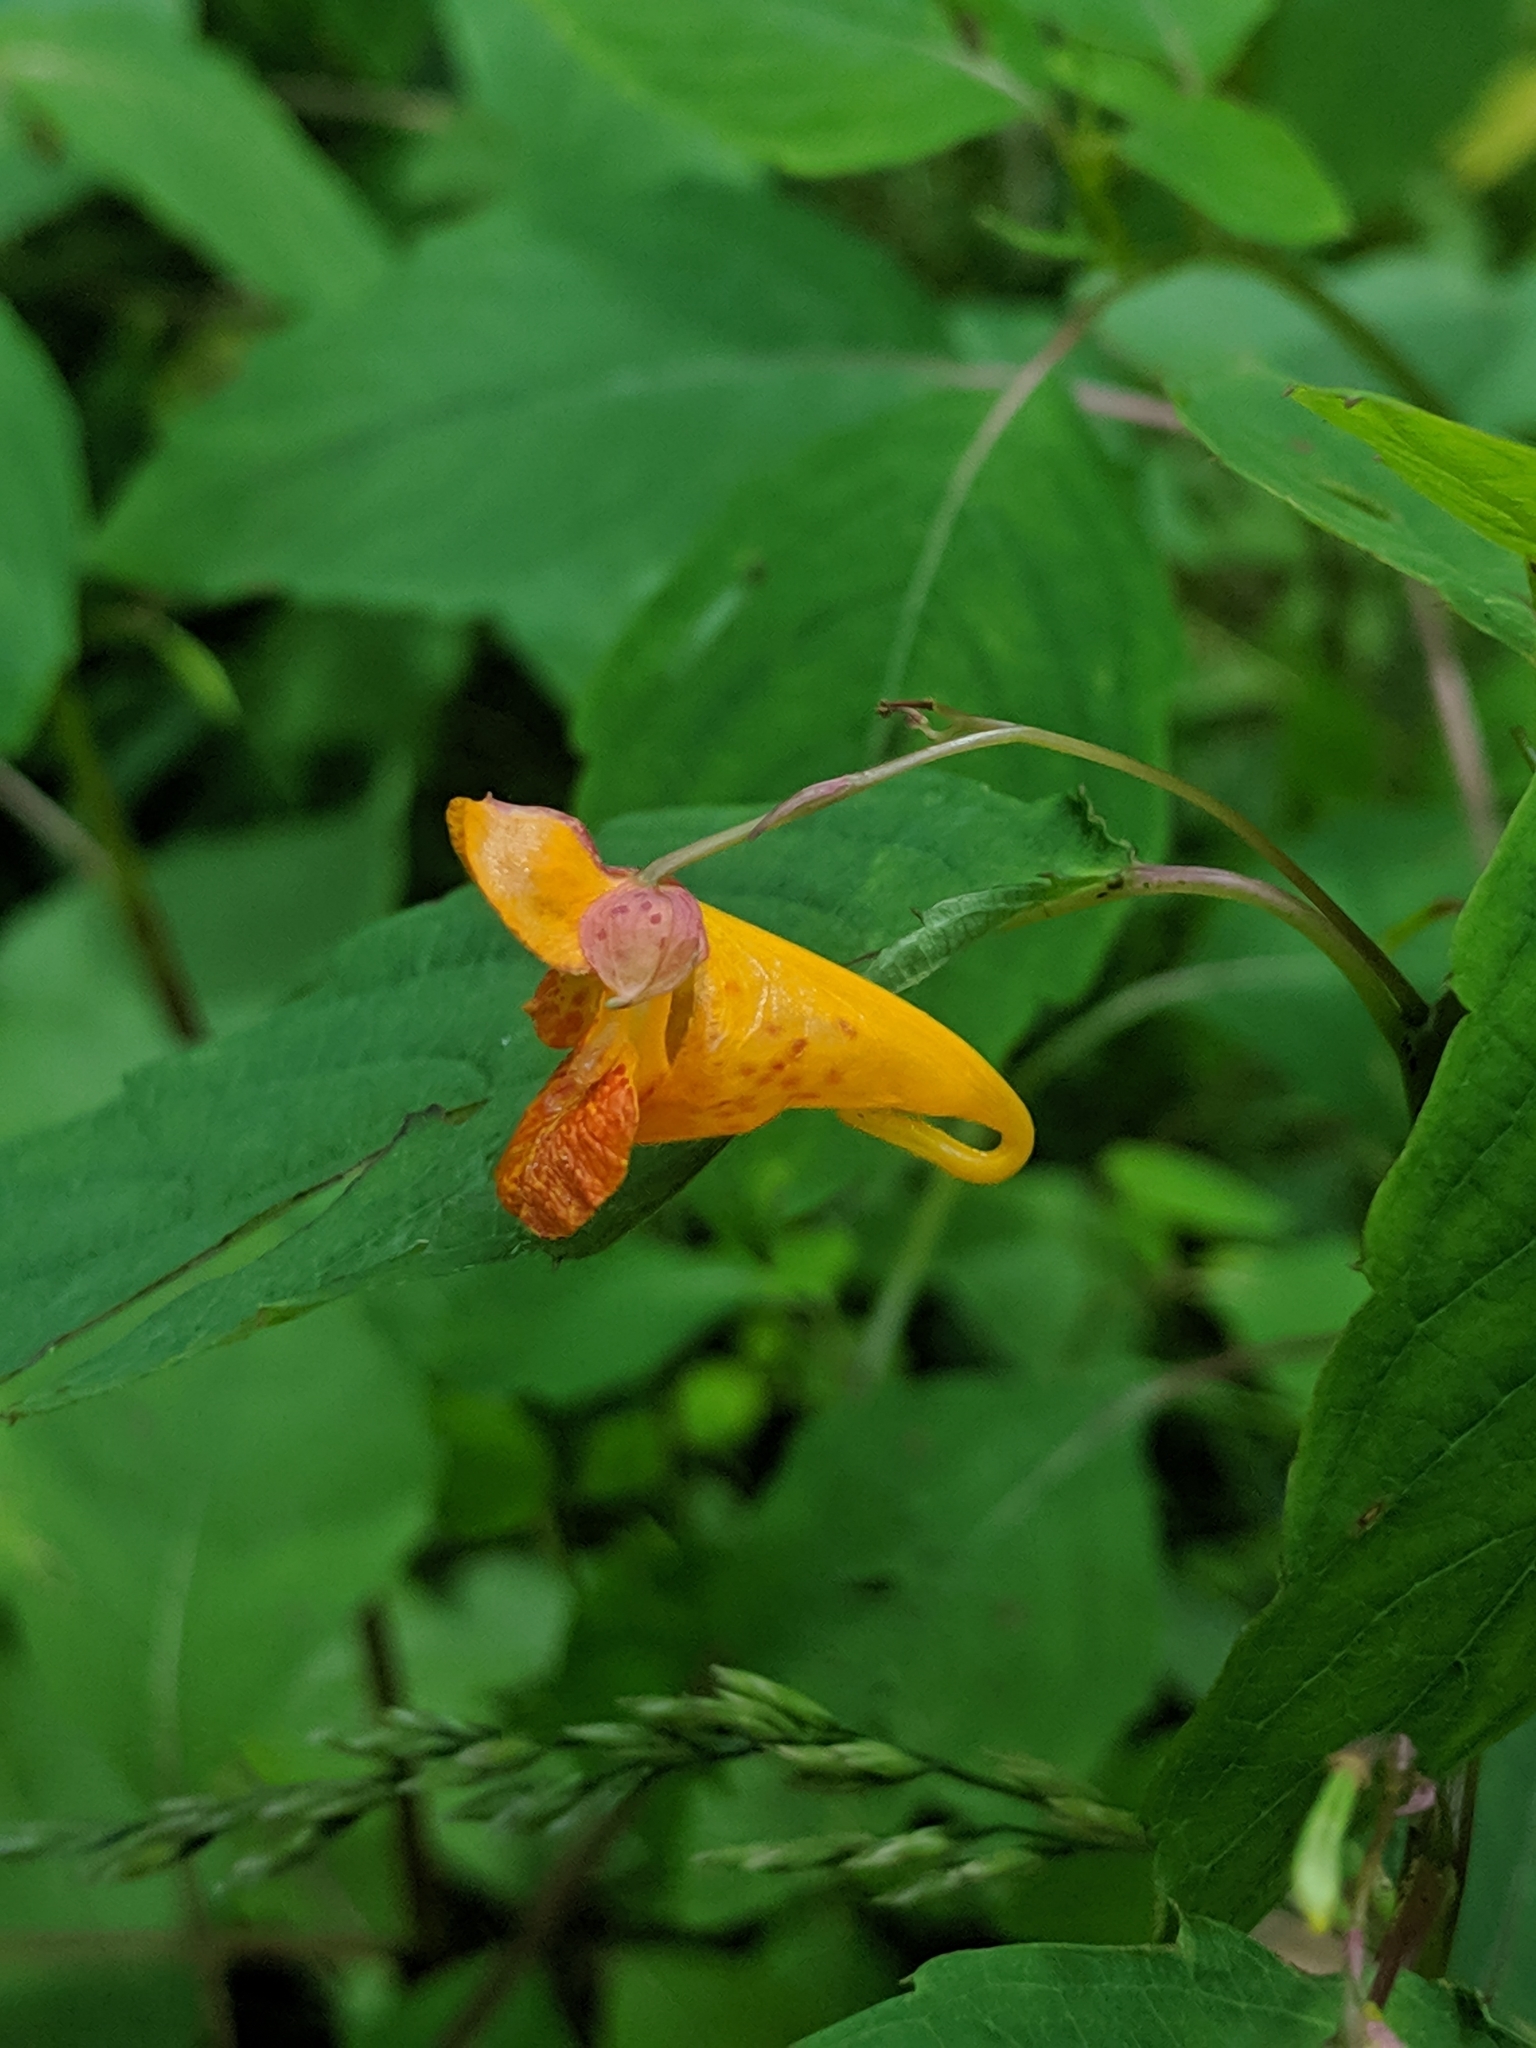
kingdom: Plantae
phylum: Tracheophyta
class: Magnoliopsida
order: Ericales
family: Balsaminaceae
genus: Impatiens
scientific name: Impatiens capensis
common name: Orange balsam
